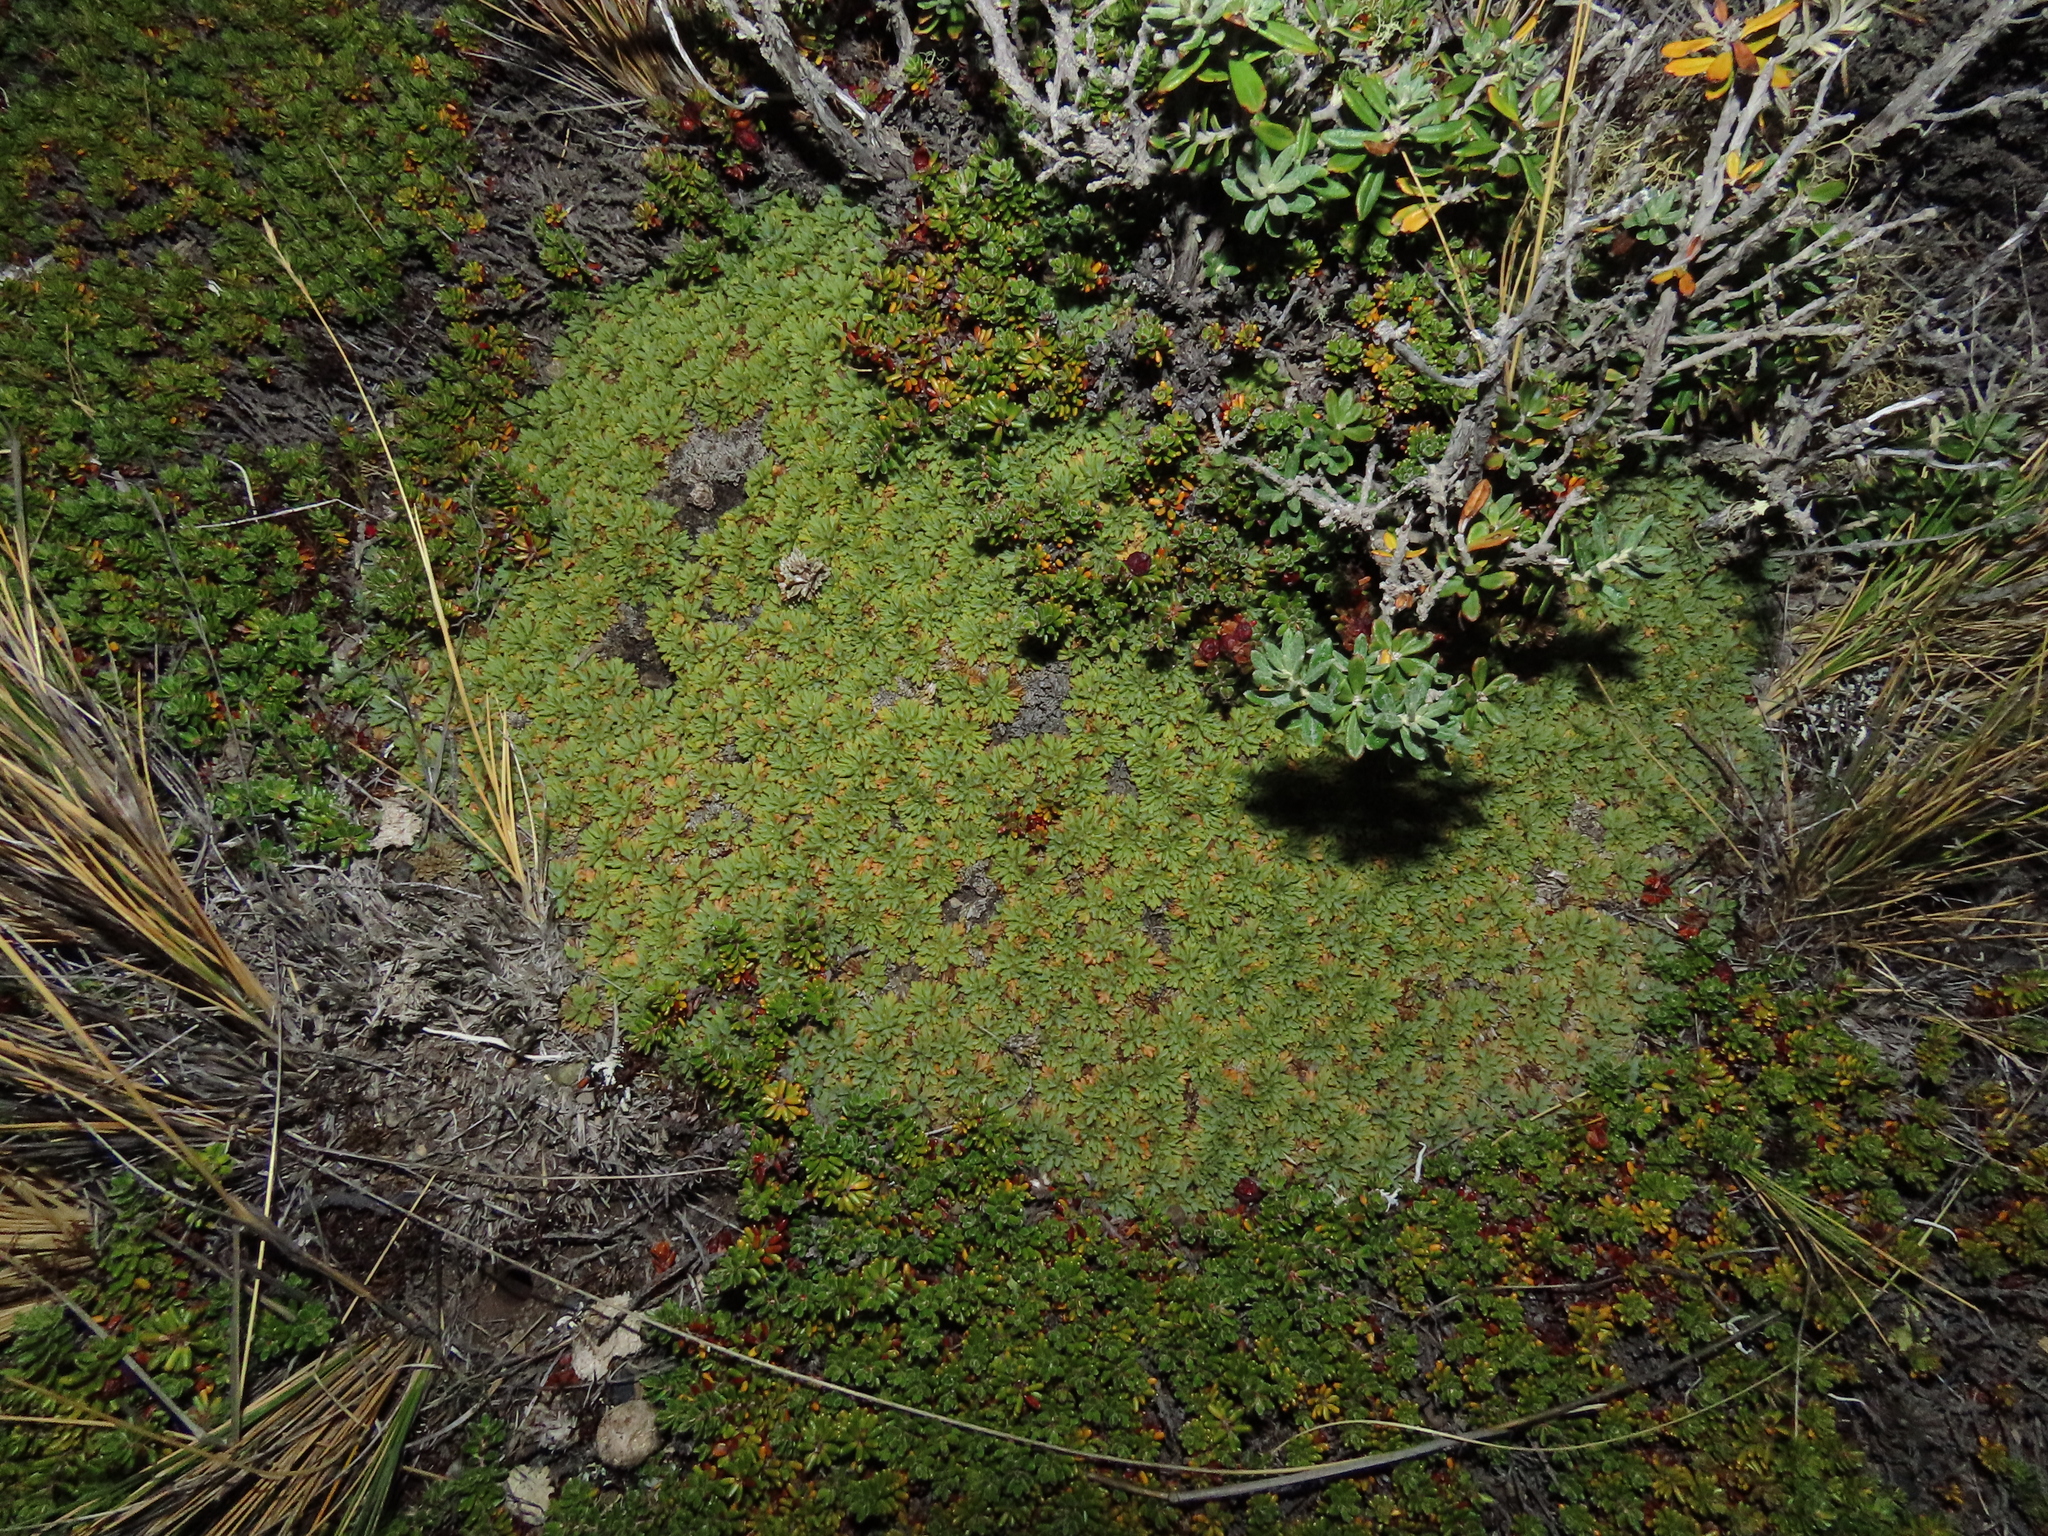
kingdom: Plantae
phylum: Tracheophyta
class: Magnoliopsida
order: Apiales
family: Apiaceae
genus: Bolax
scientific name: Bolax gummifera
